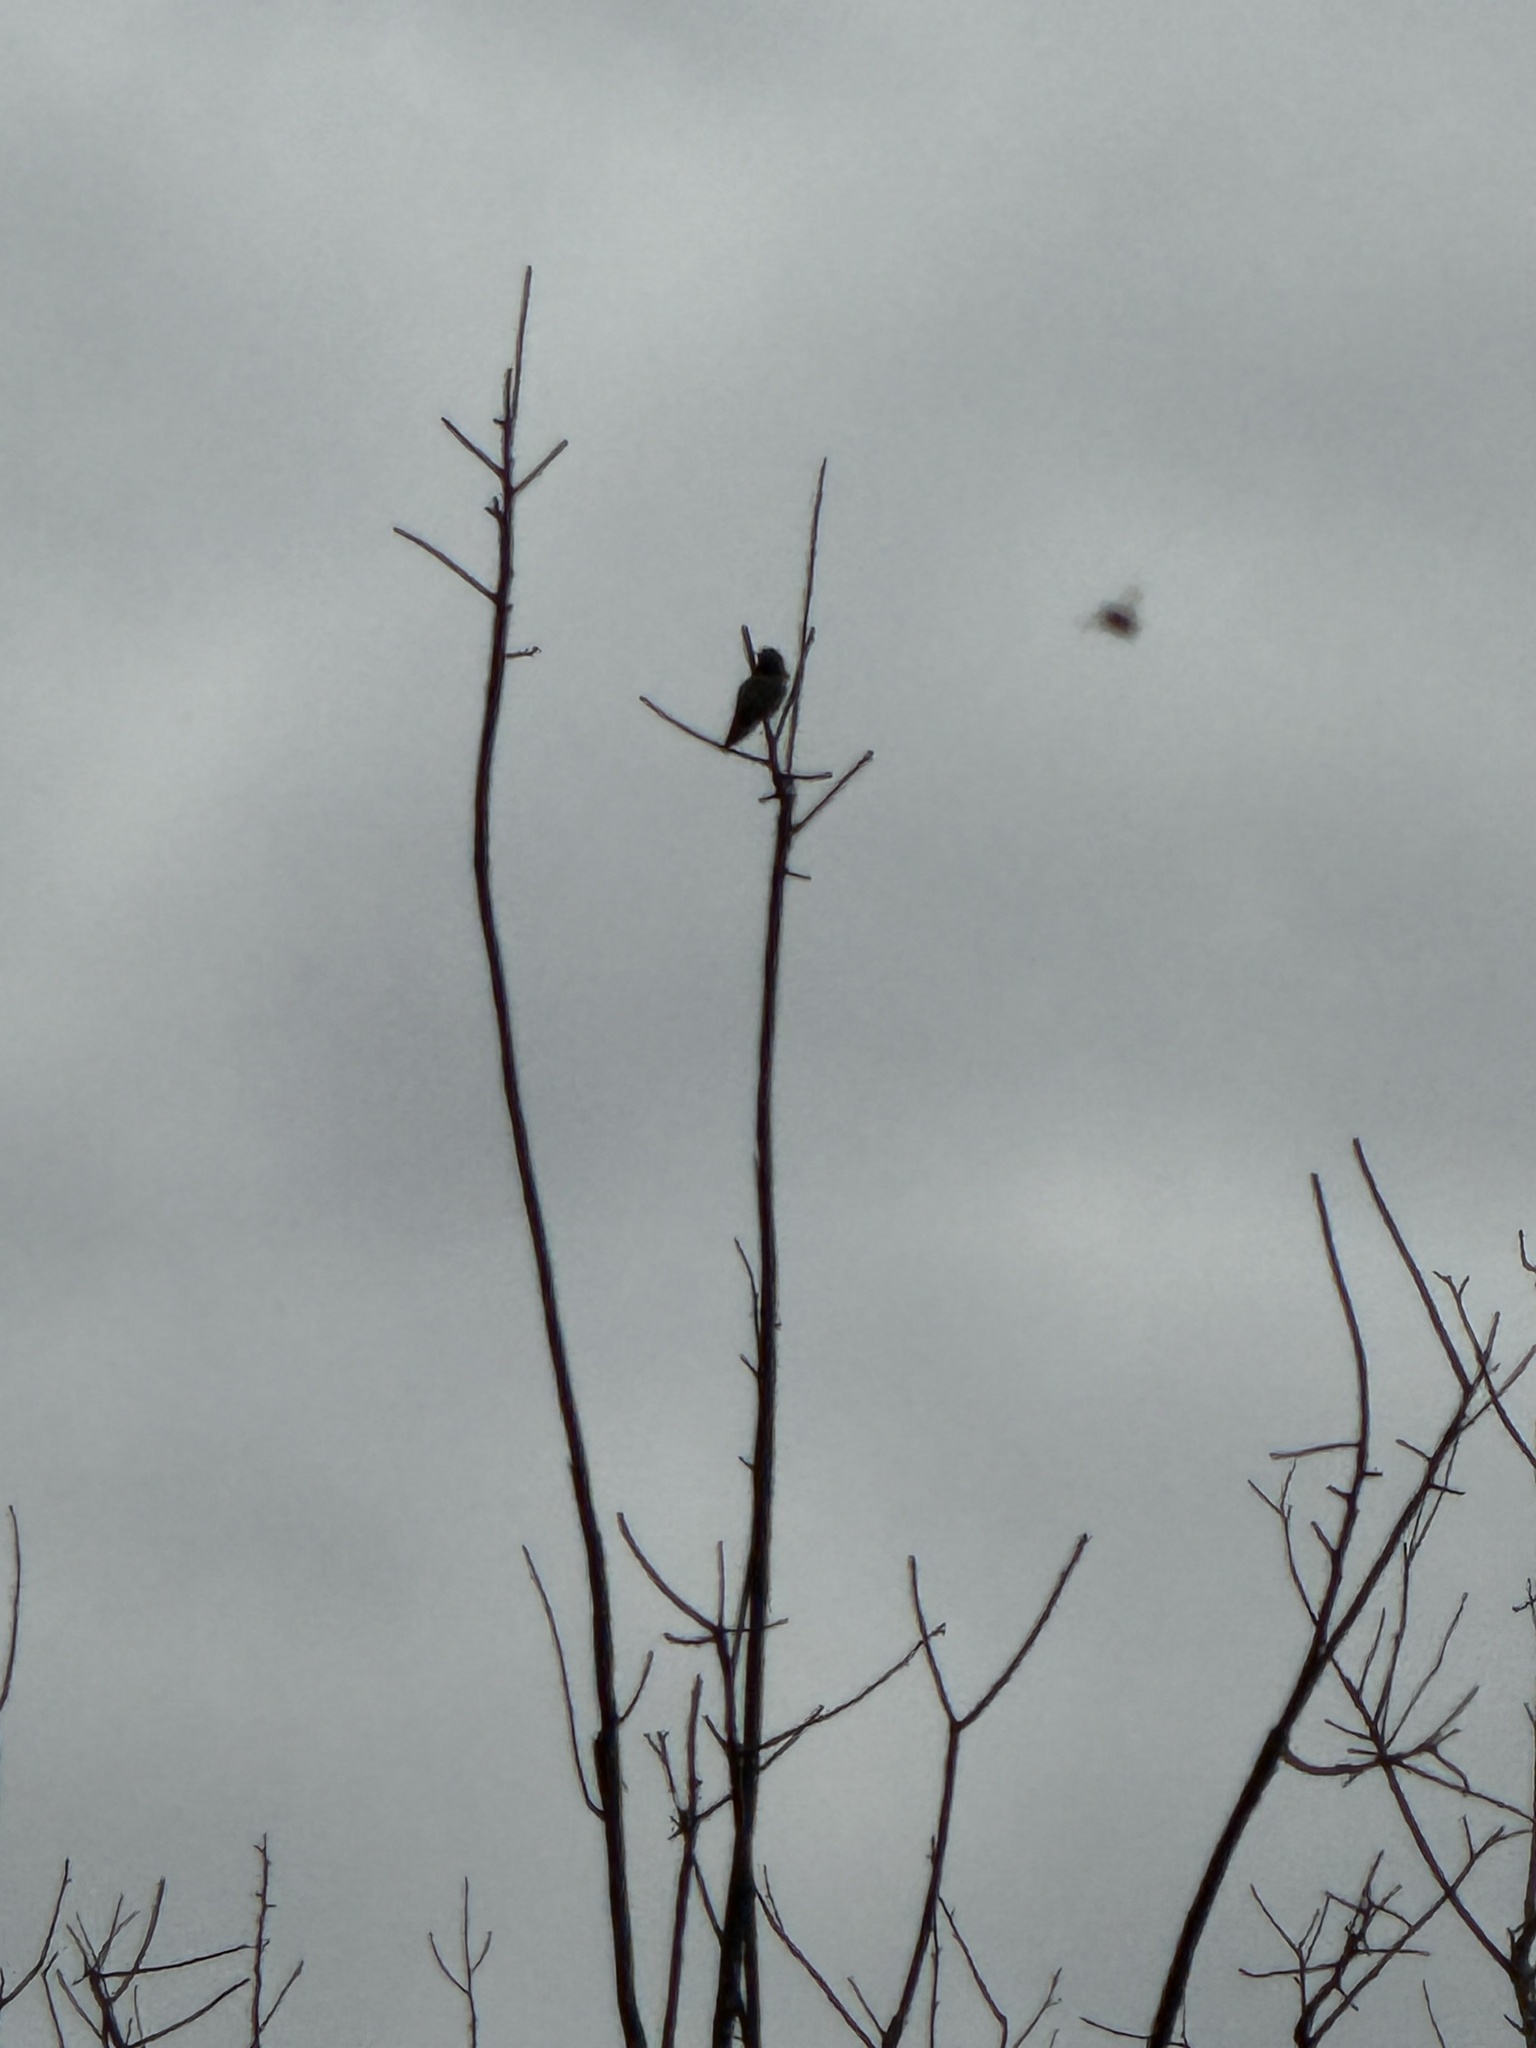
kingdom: Animalia
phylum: Chordata
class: Aves
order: Apodiformes
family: Trochilidae
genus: Calypte
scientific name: Calypte anna
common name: Anna's hummingbird
